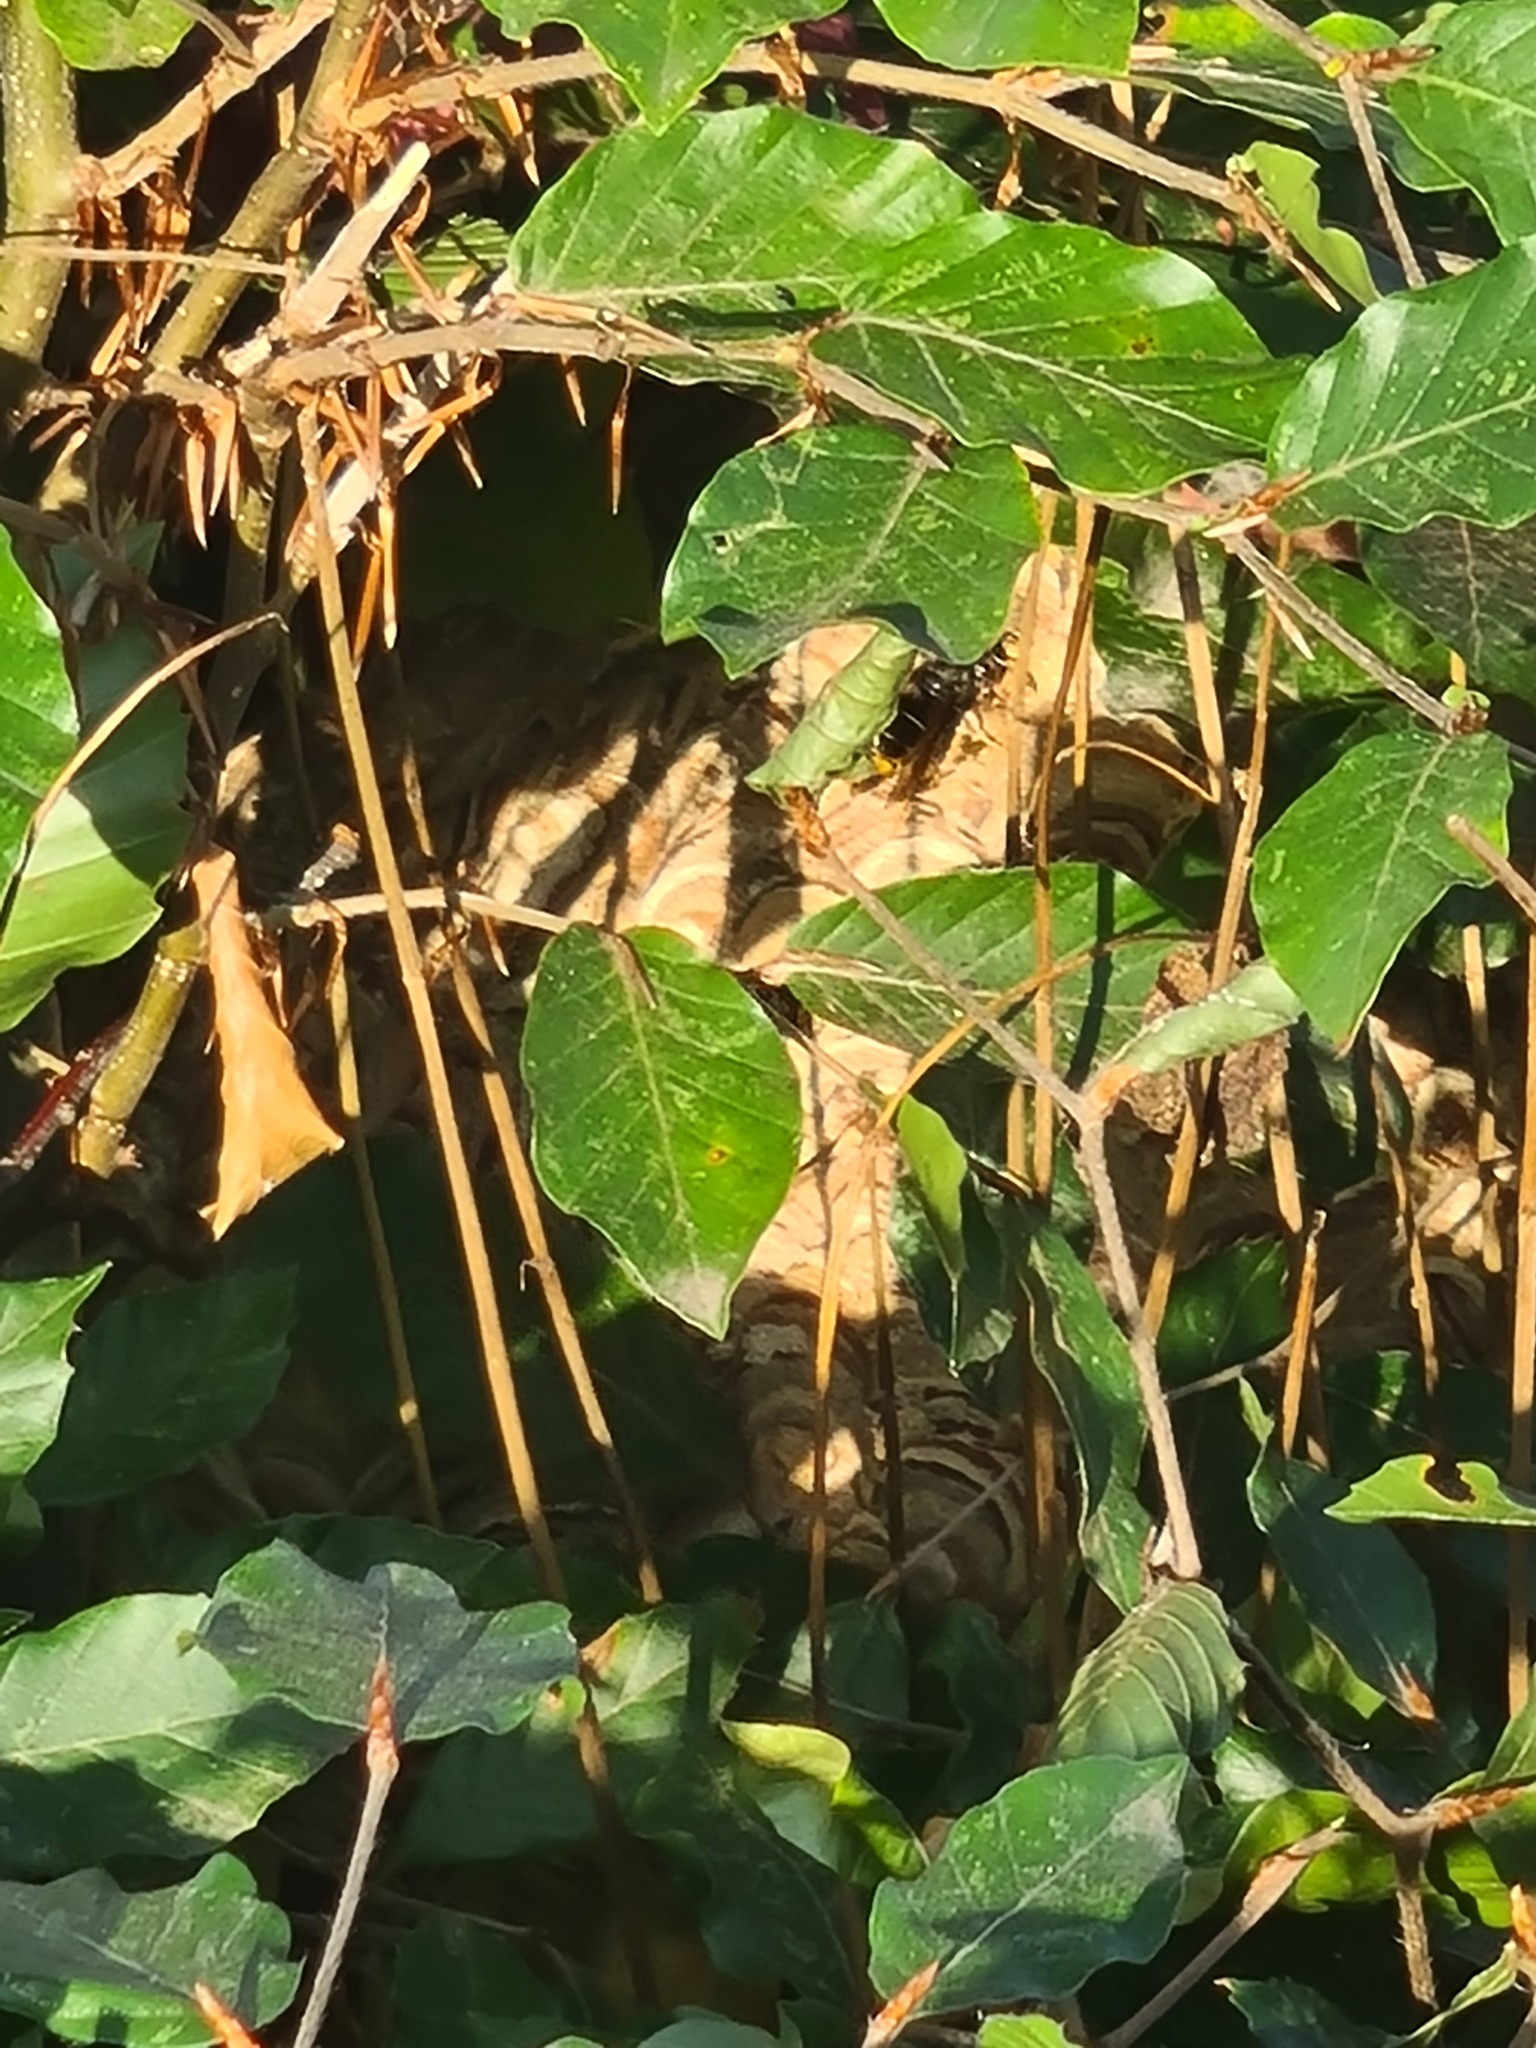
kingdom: Animalia
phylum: Arthropoda
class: Insecta
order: Hymenoptera
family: Vespidae
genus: Vespa
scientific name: Vespa velutina
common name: Asian hornet
